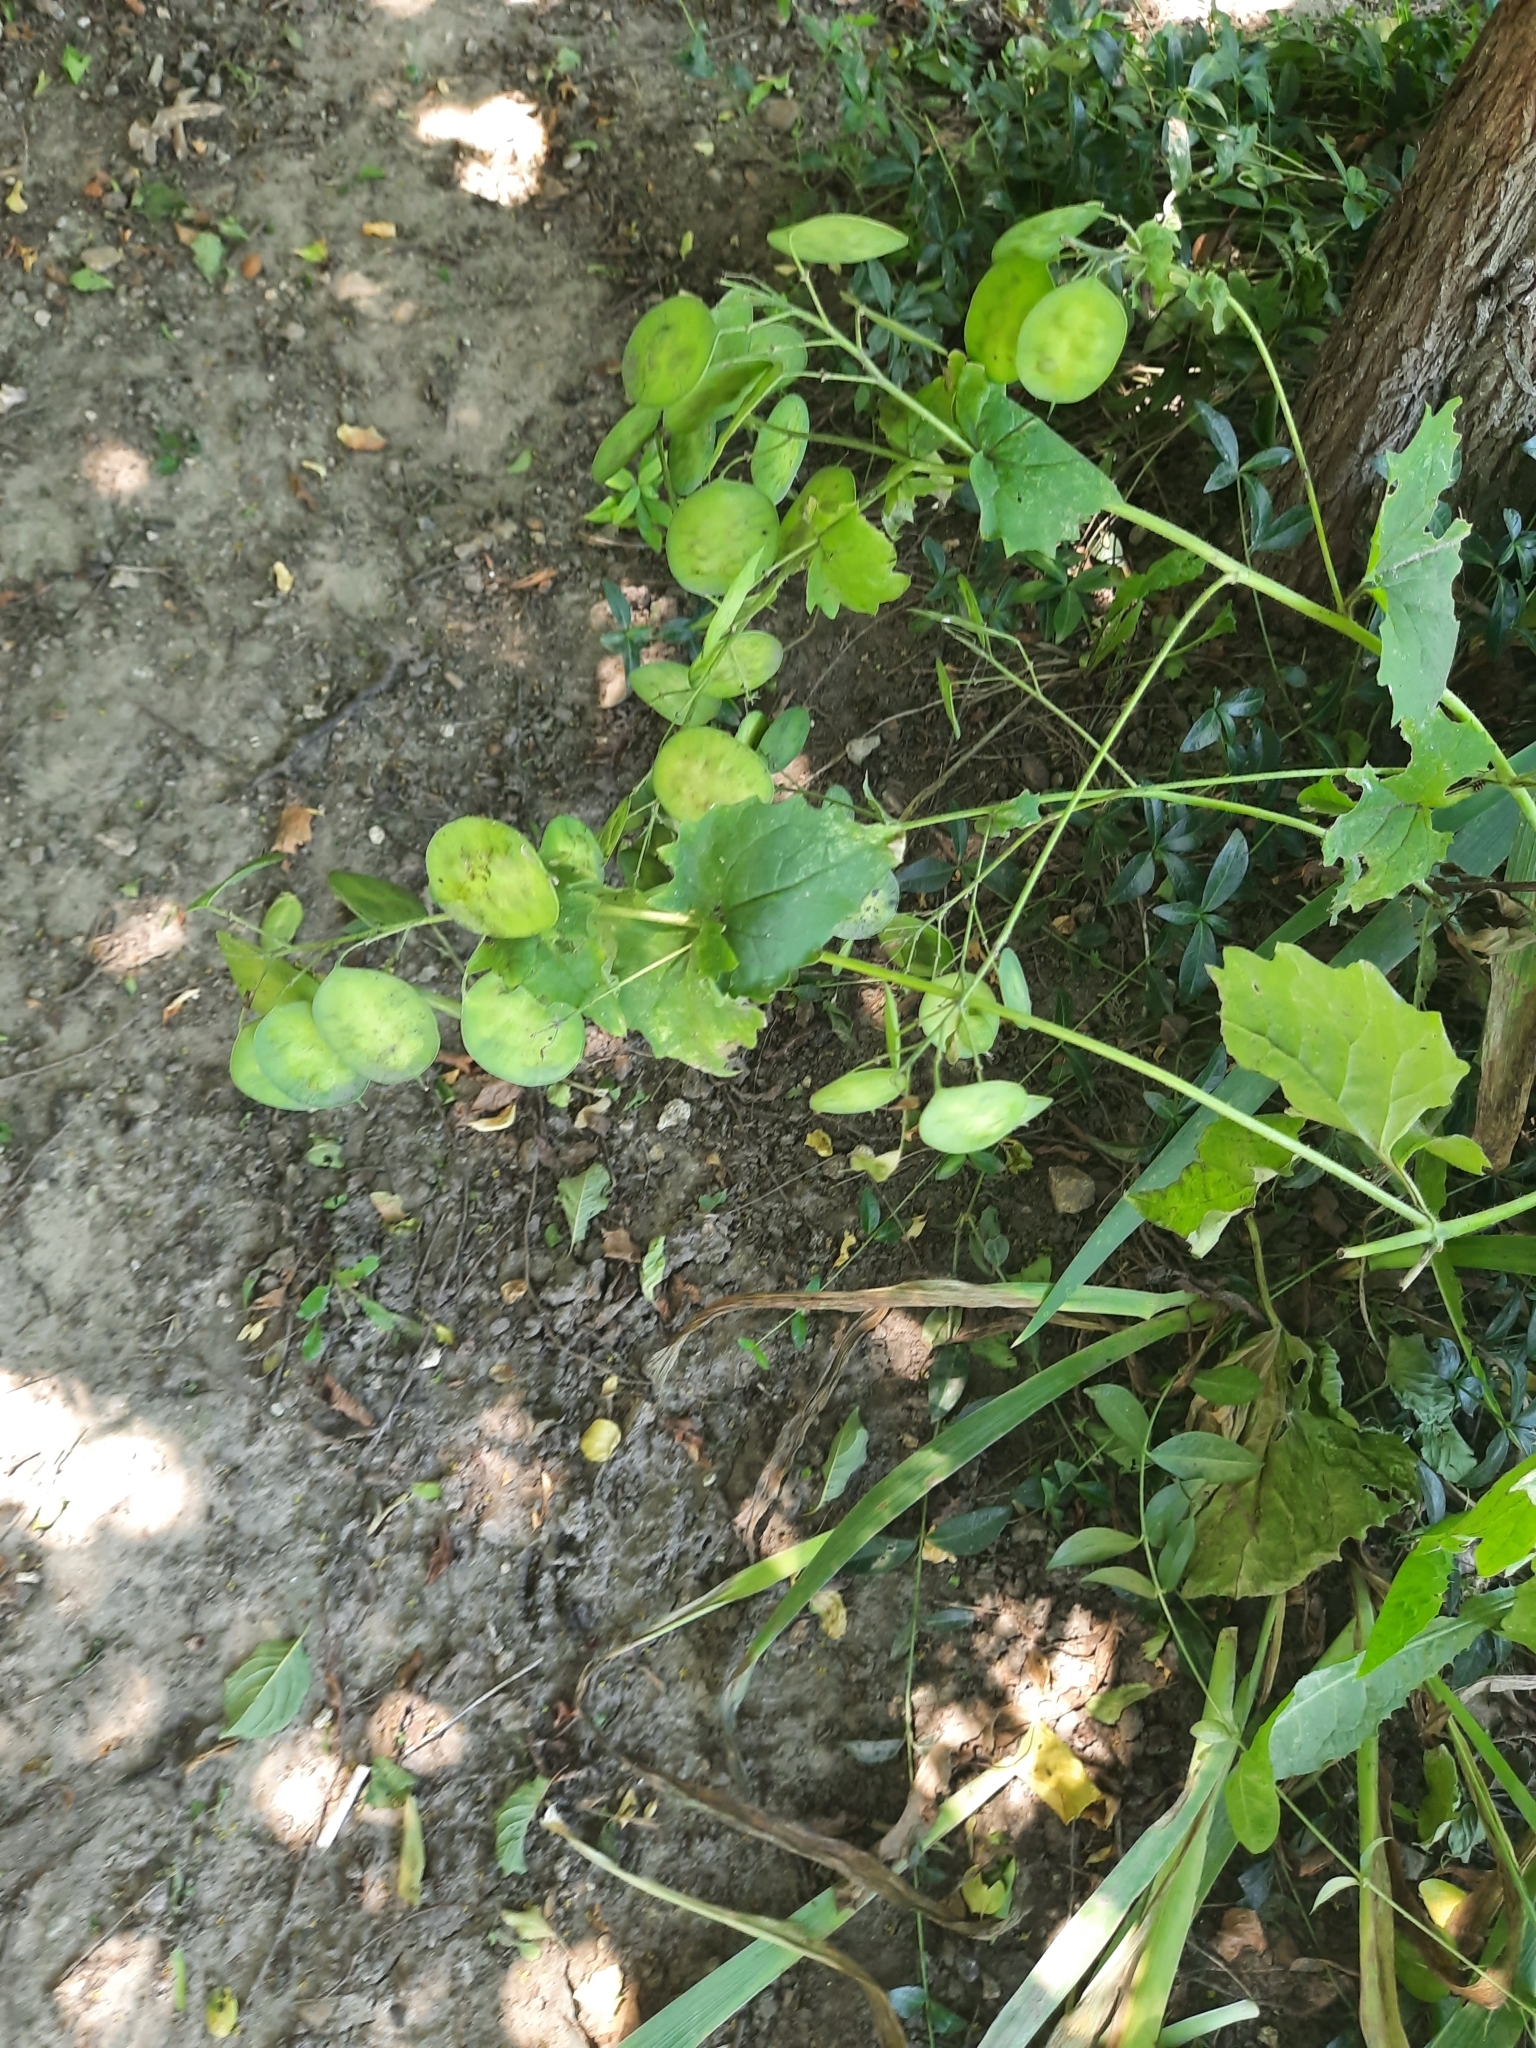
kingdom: Plantae
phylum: Tracheophyta
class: Magnoliopsida
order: Brassicales
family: Brassicaceae
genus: Lunaria
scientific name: Lunaria annua
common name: Honesty
